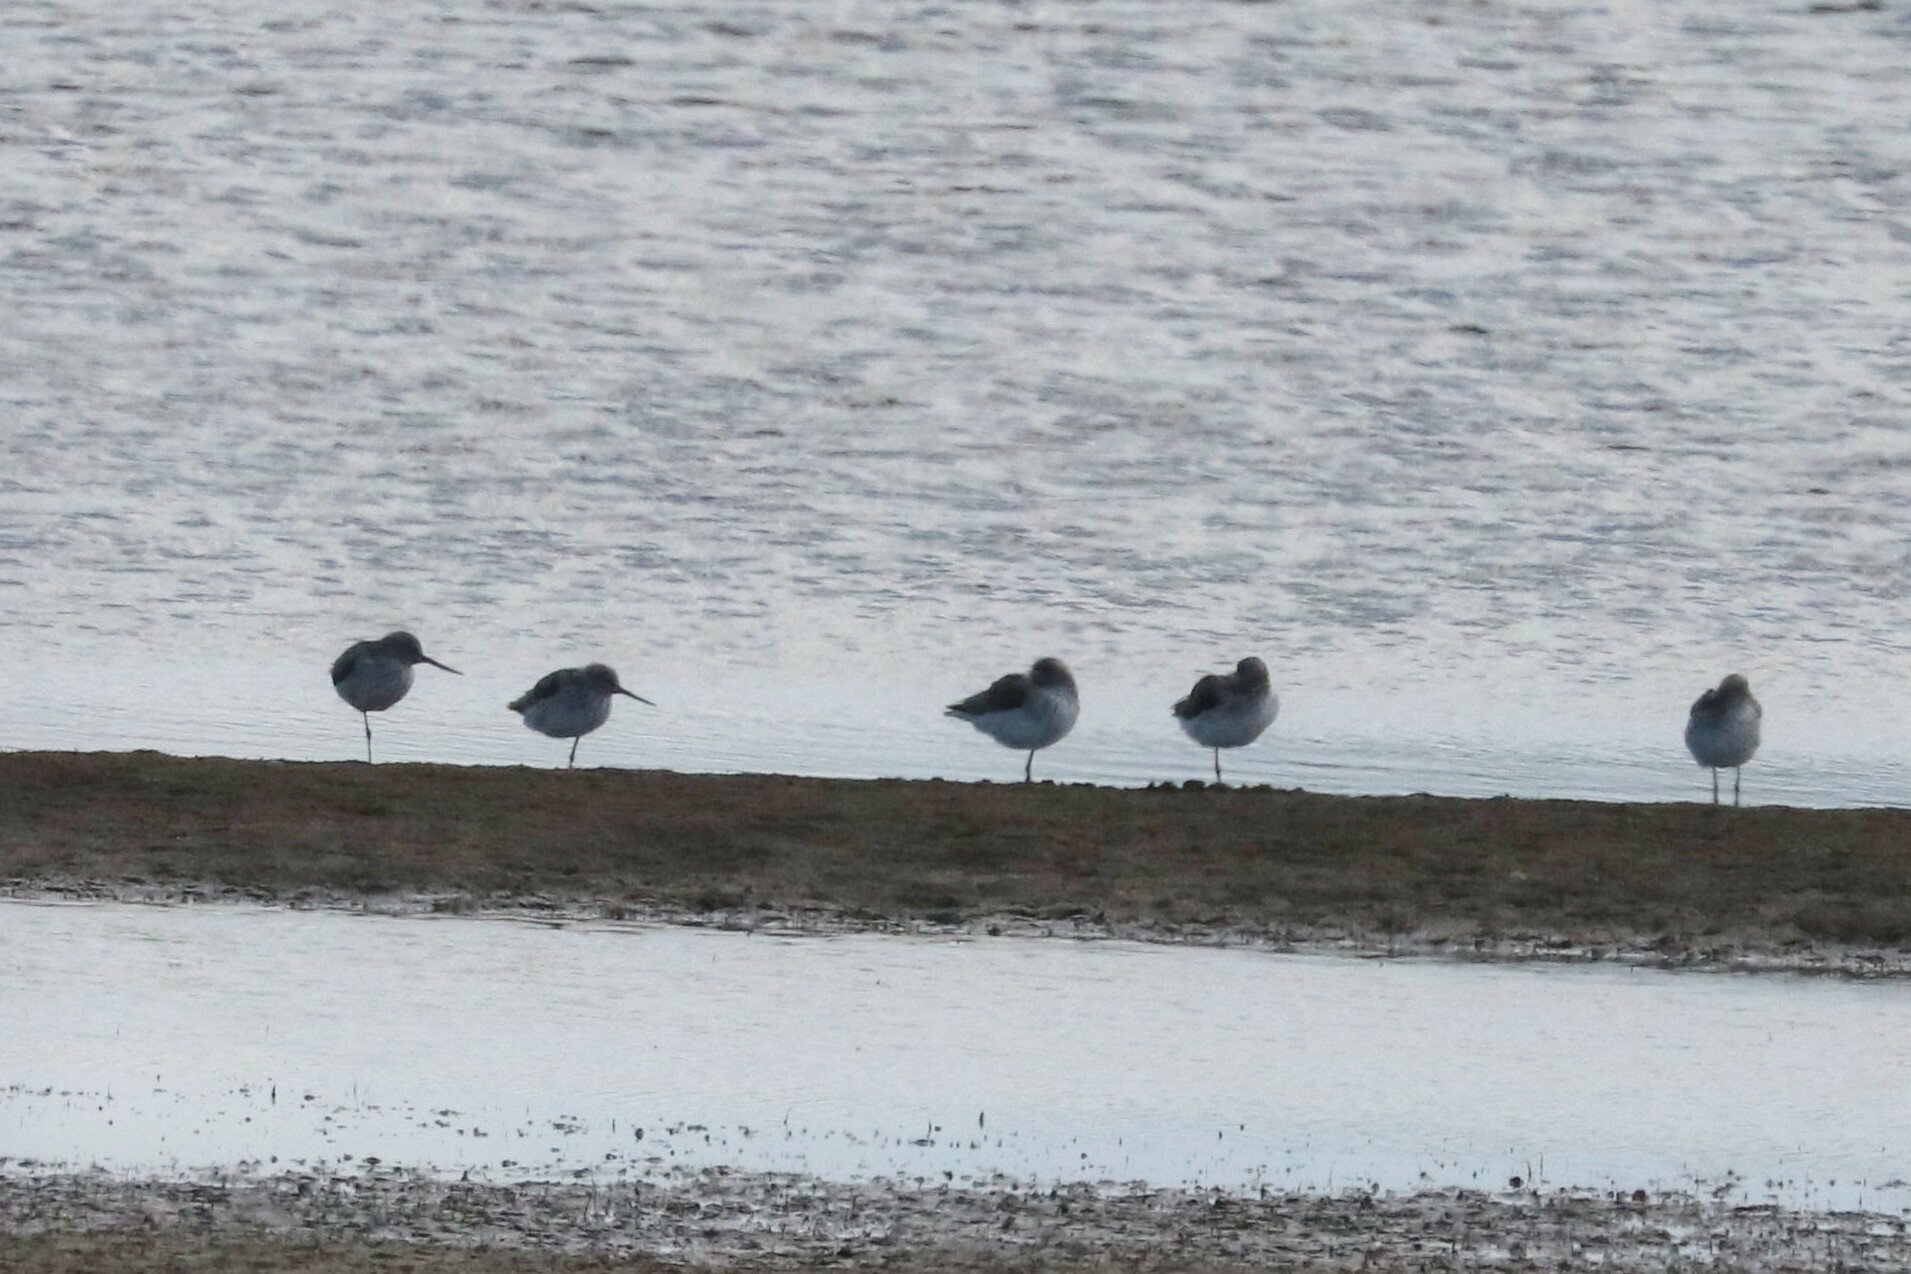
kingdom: Animalia
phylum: Chordata
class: Aves
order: Charadriiformes
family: Scolopacidae
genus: Tringa
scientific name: Tringa nebularia
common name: Common greenshank
